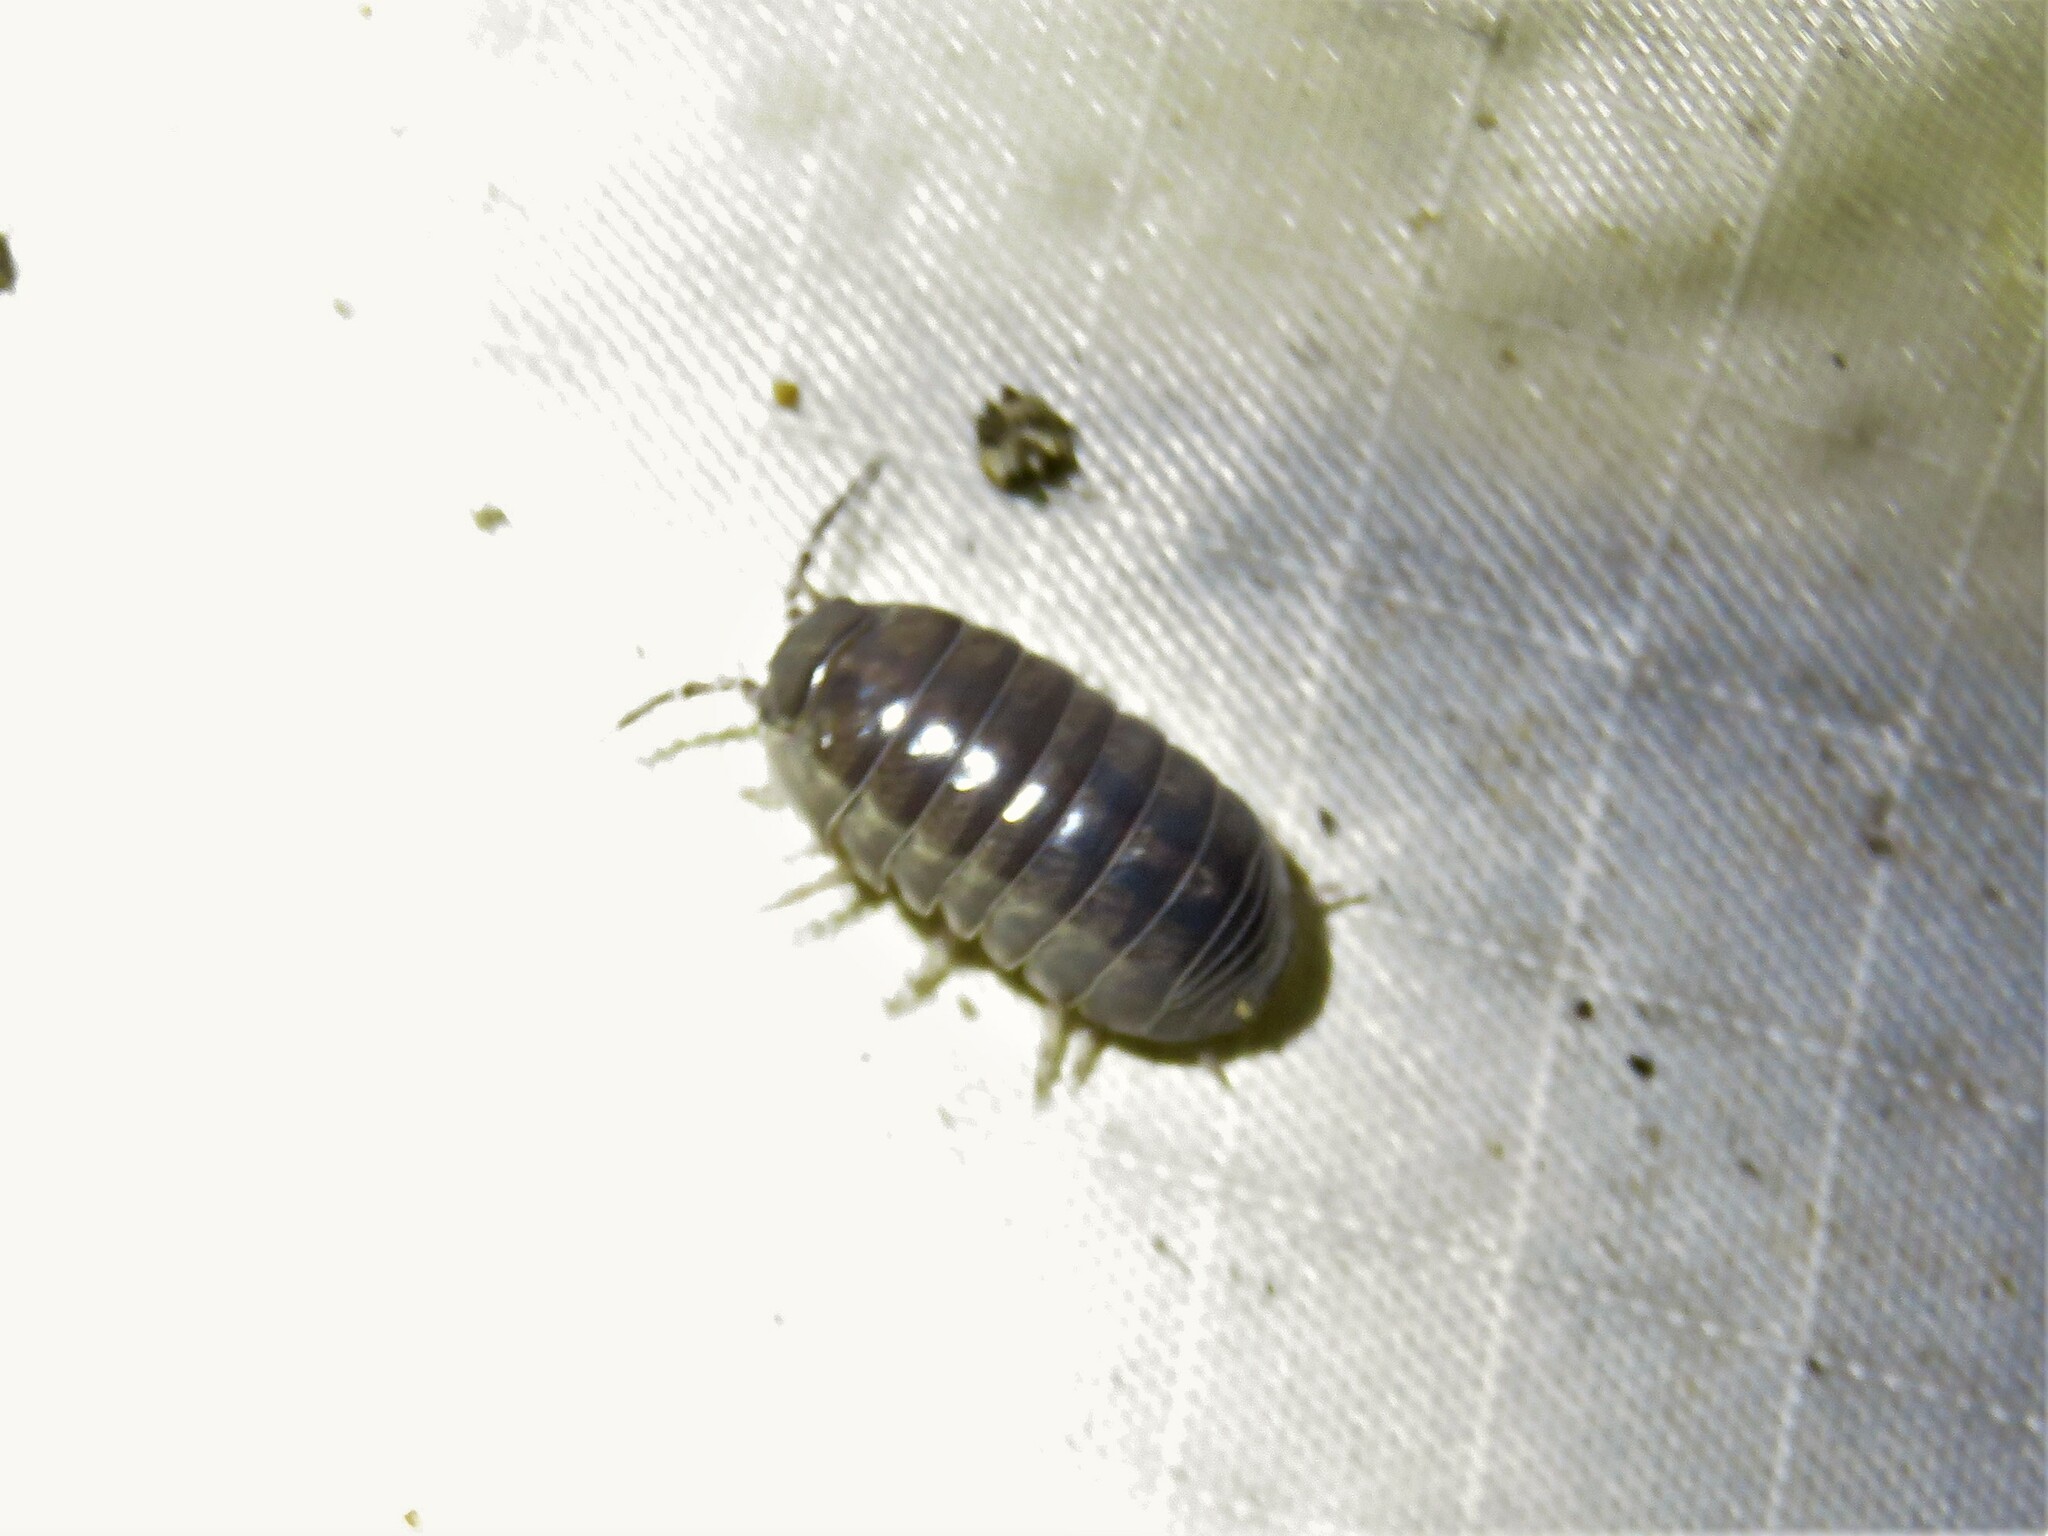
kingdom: Animalia
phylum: Arthropoda
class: Malacostraca
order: Isopoda
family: Armadillidiidae
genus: Armadillidium
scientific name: Armadillidium vulgare
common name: Common pill woodlouse
